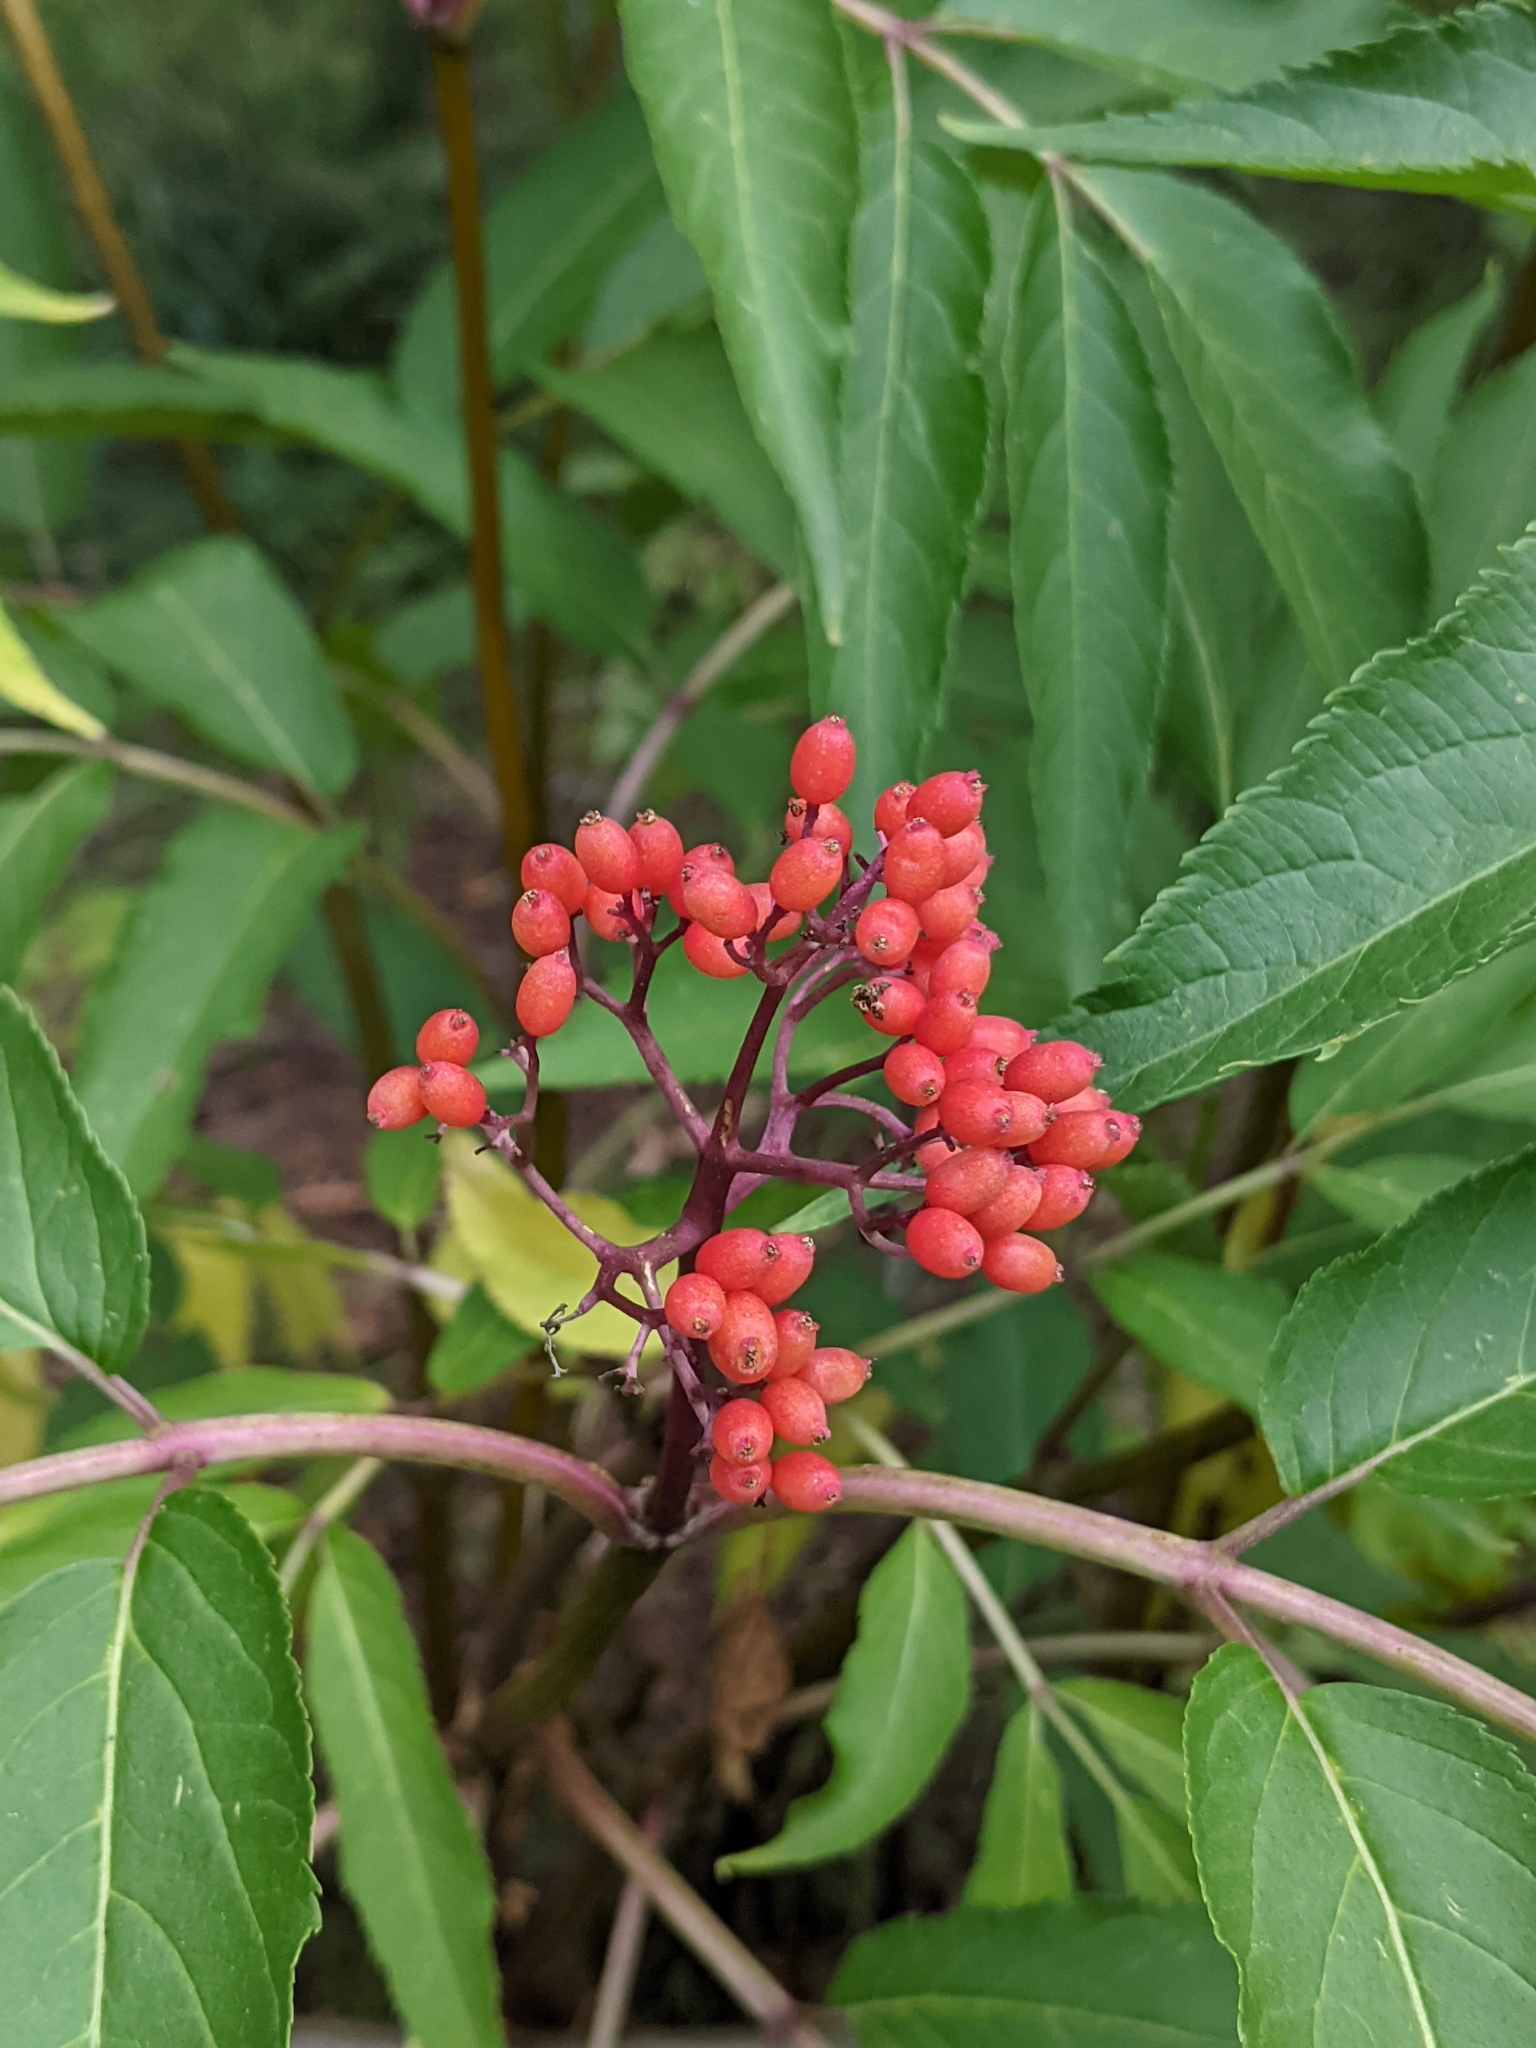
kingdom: Plantae
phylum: Tracheophyta
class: Magnoliopsida
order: Dipsacales
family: Viburnaceae
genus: Sambucus
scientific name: Sambucus racemosa
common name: Red-berried elder
